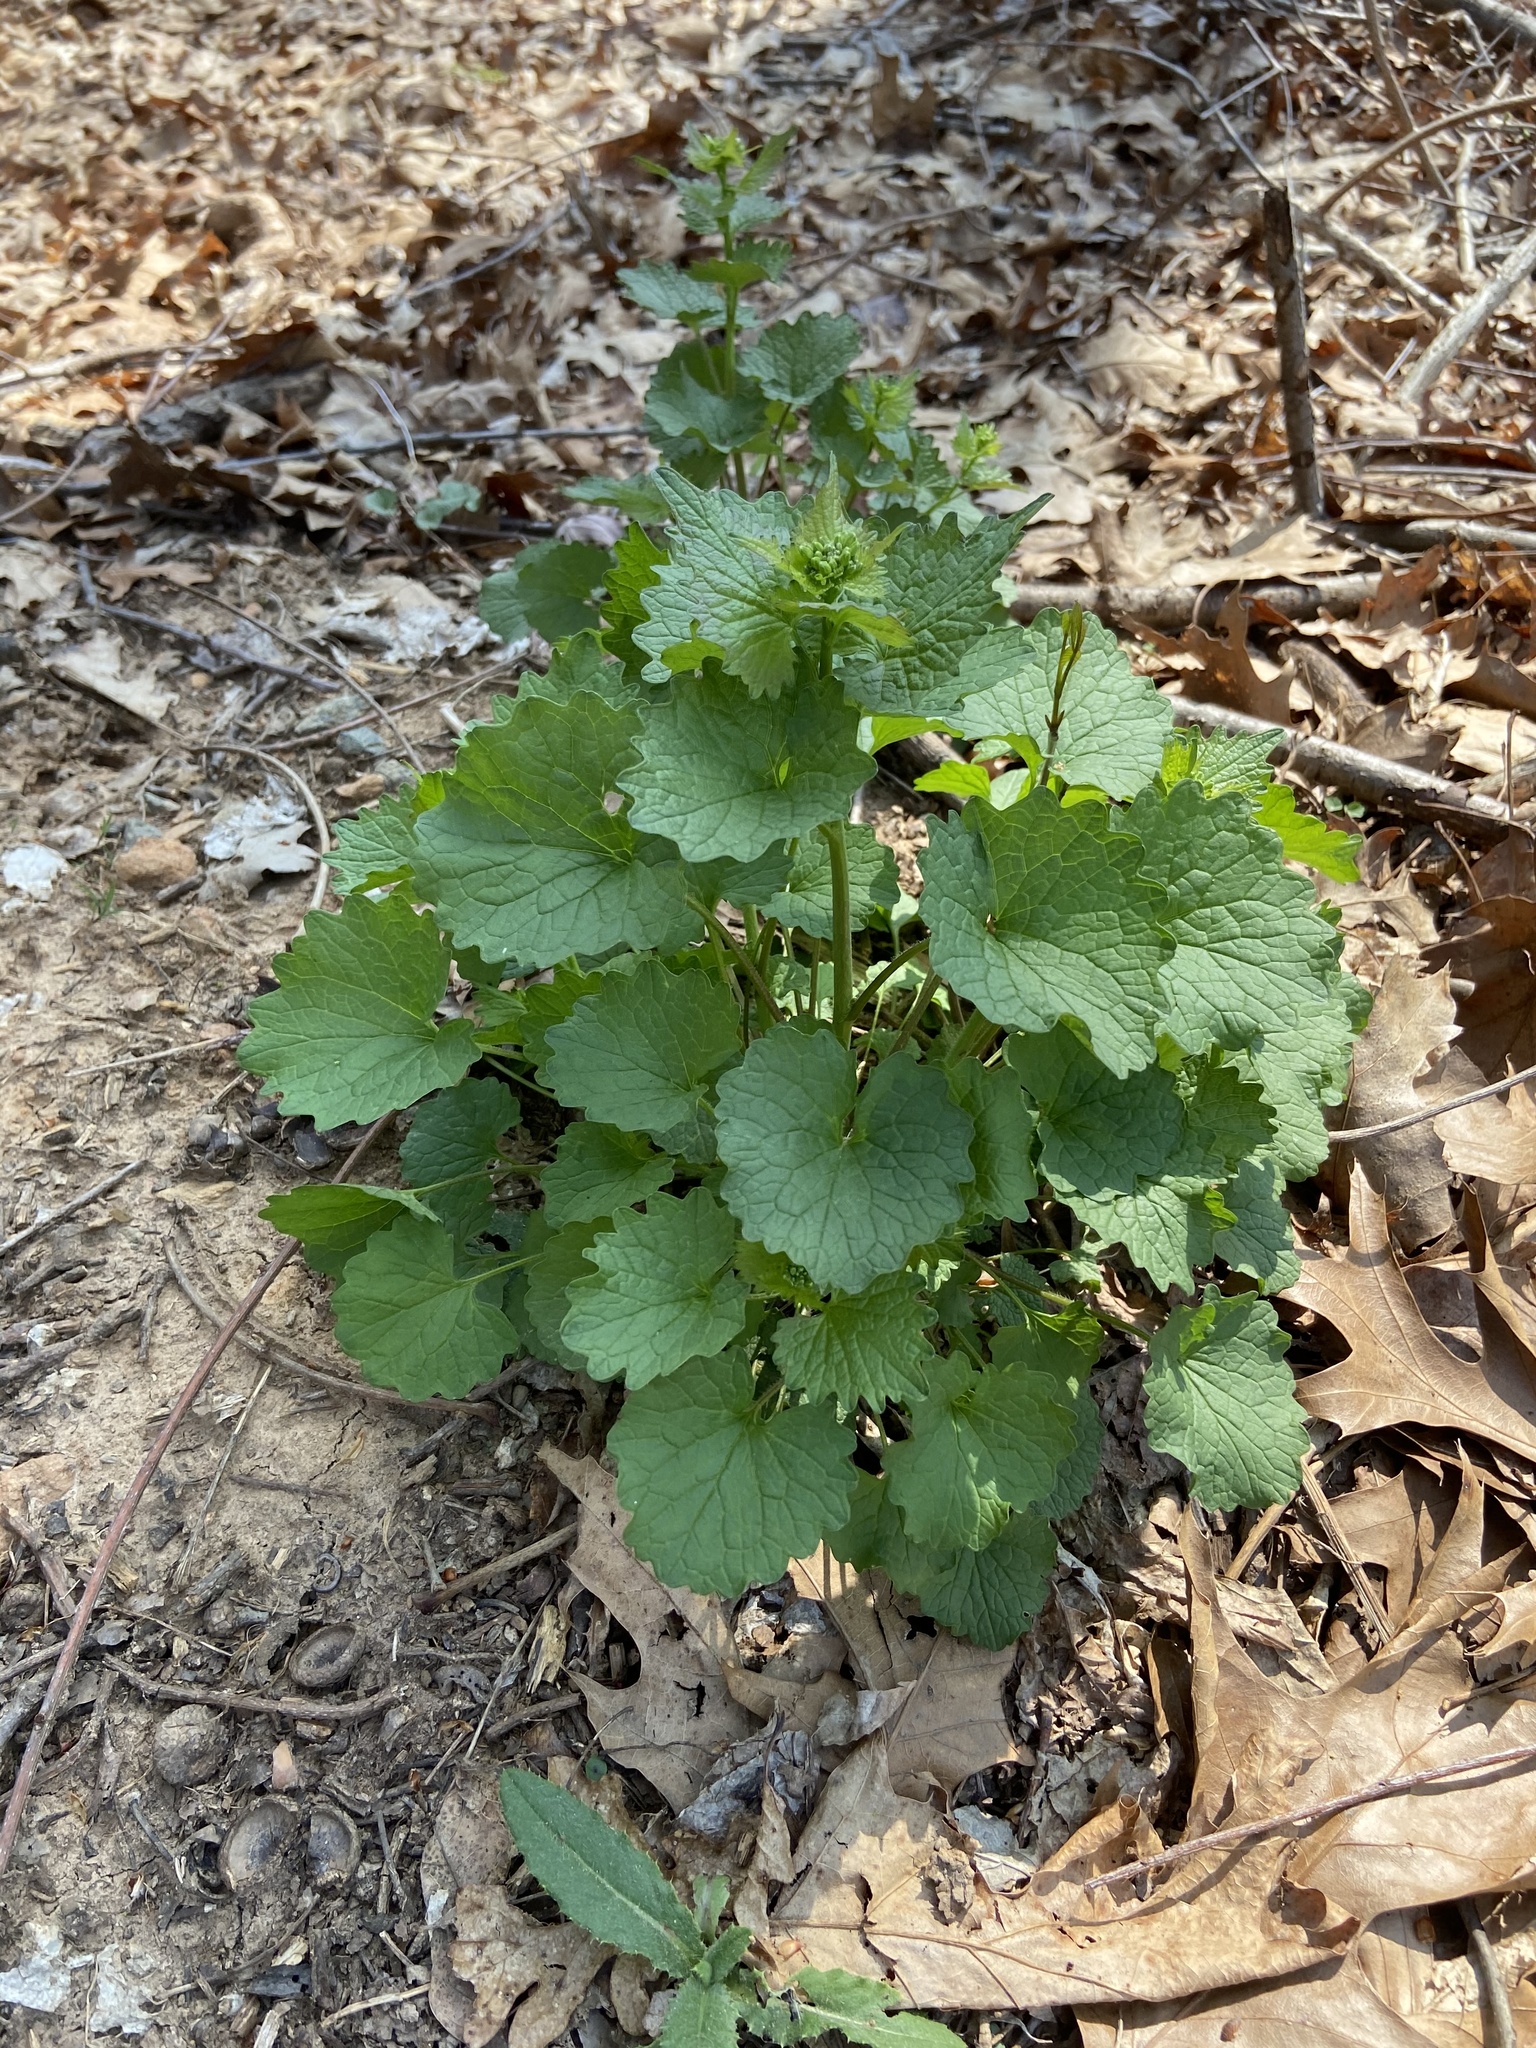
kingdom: Plantae
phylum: Tracheophyta
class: Magnoliopsida
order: Brassicales
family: Brassicaceae
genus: Alliaria
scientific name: Alliaria petiolata
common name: Garlic mustard
